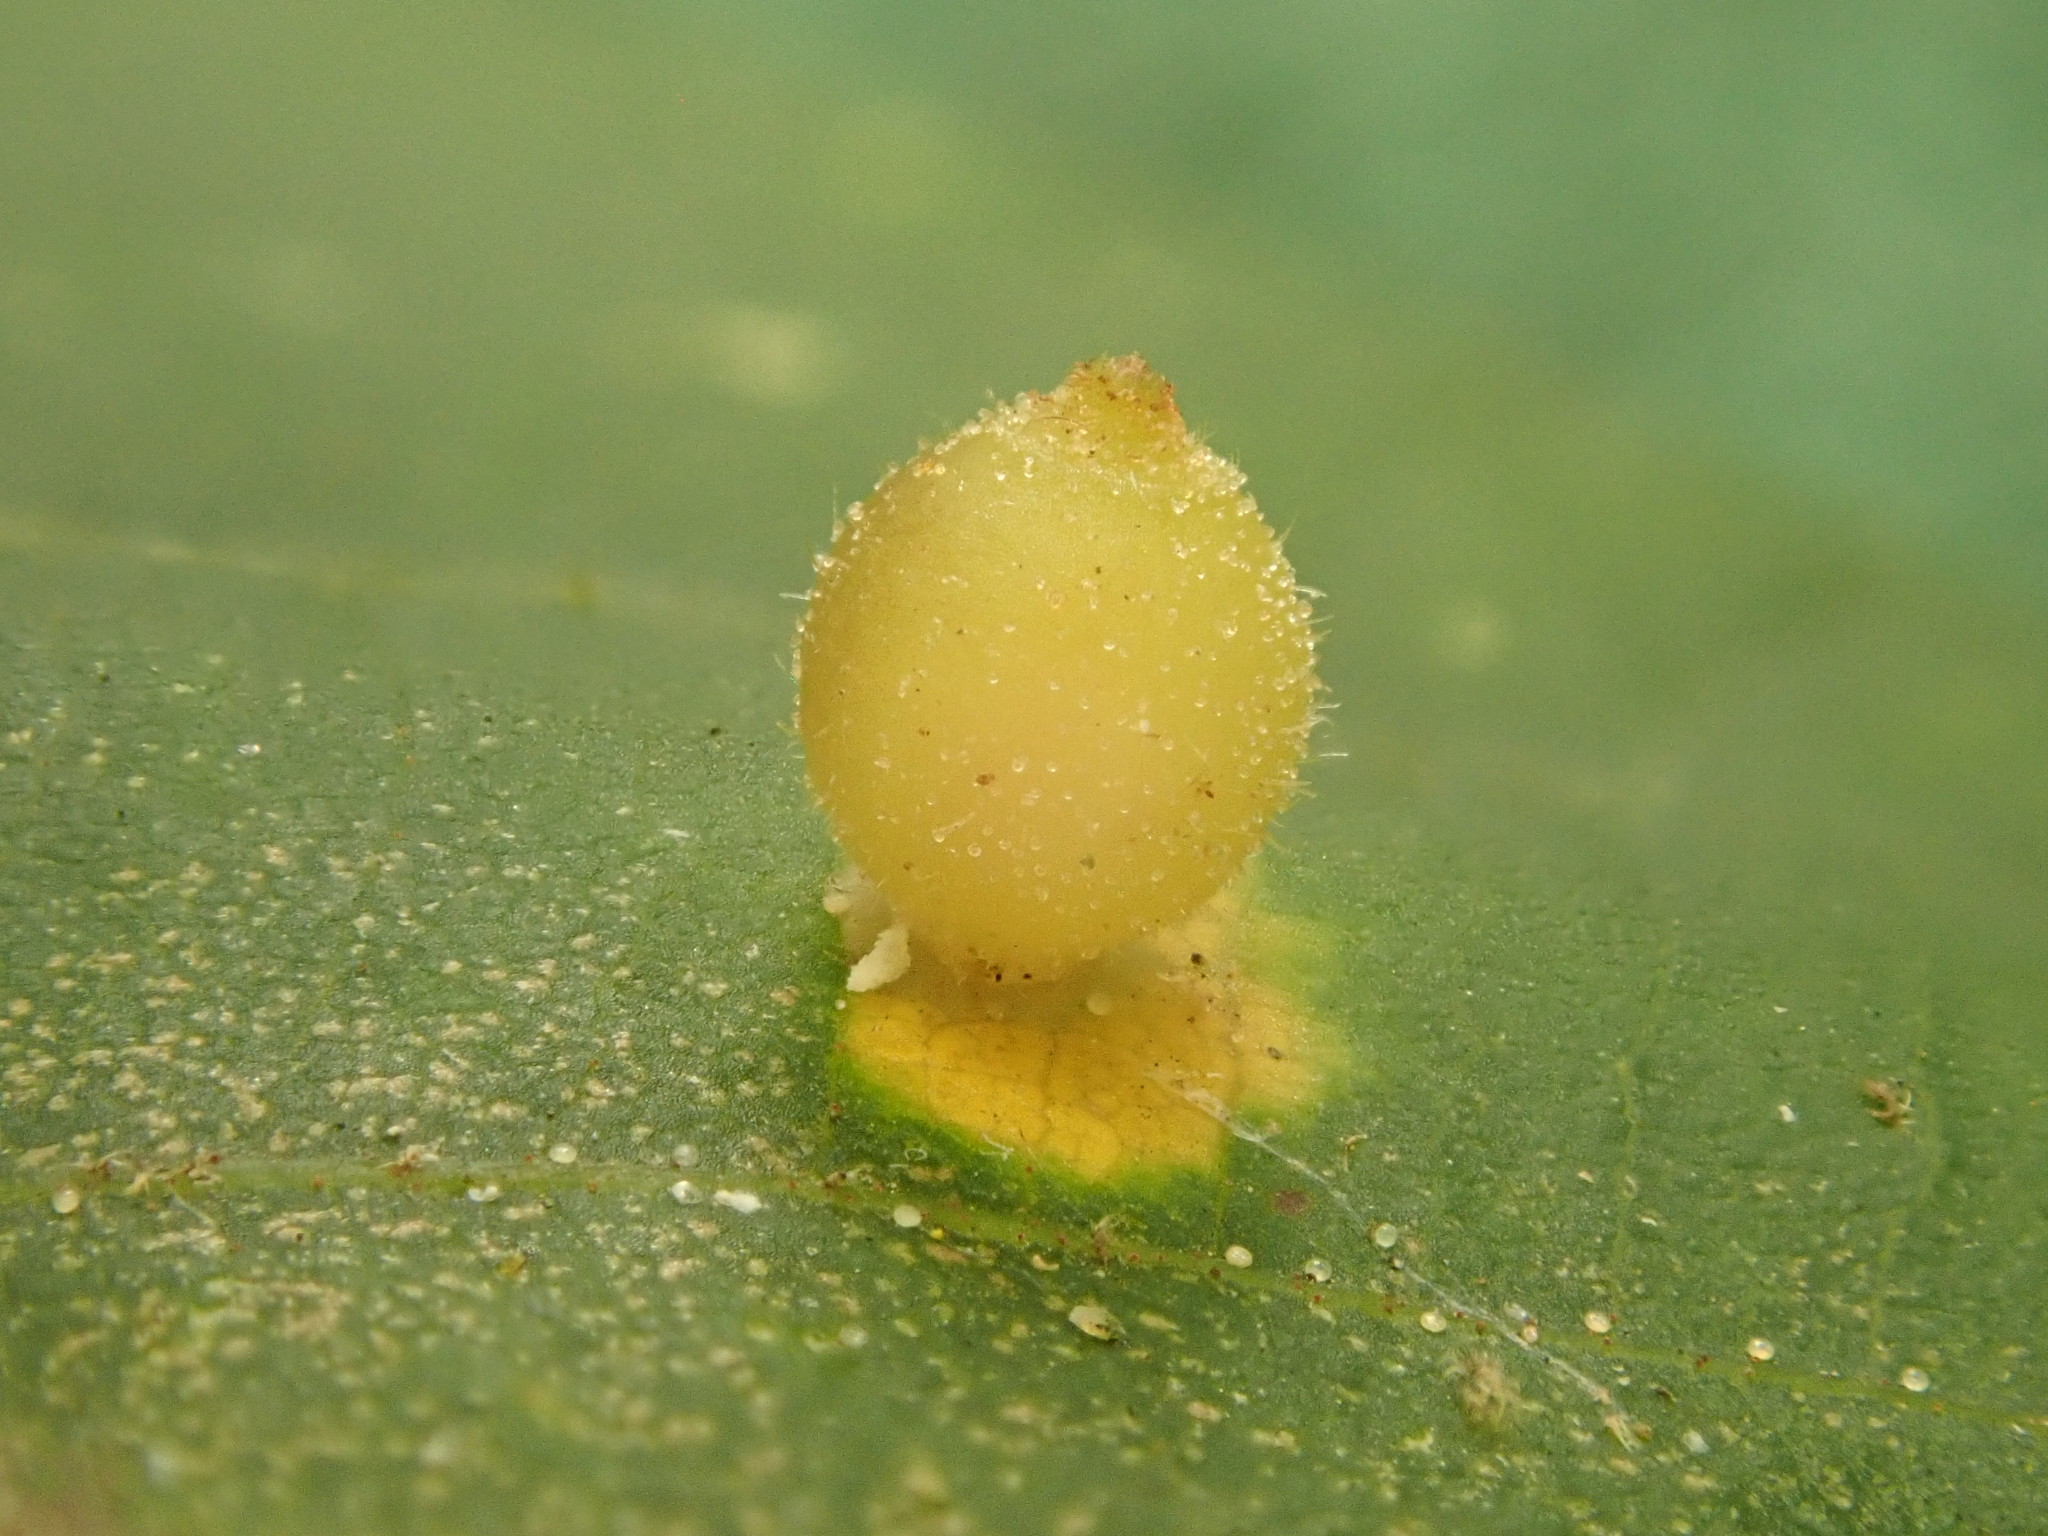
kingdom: Animalia
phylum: Arthropoda
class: Insecta
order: Diptera
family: Cecidomyiidae
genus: Caryomyia
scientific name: Caryomyia viscidolium
